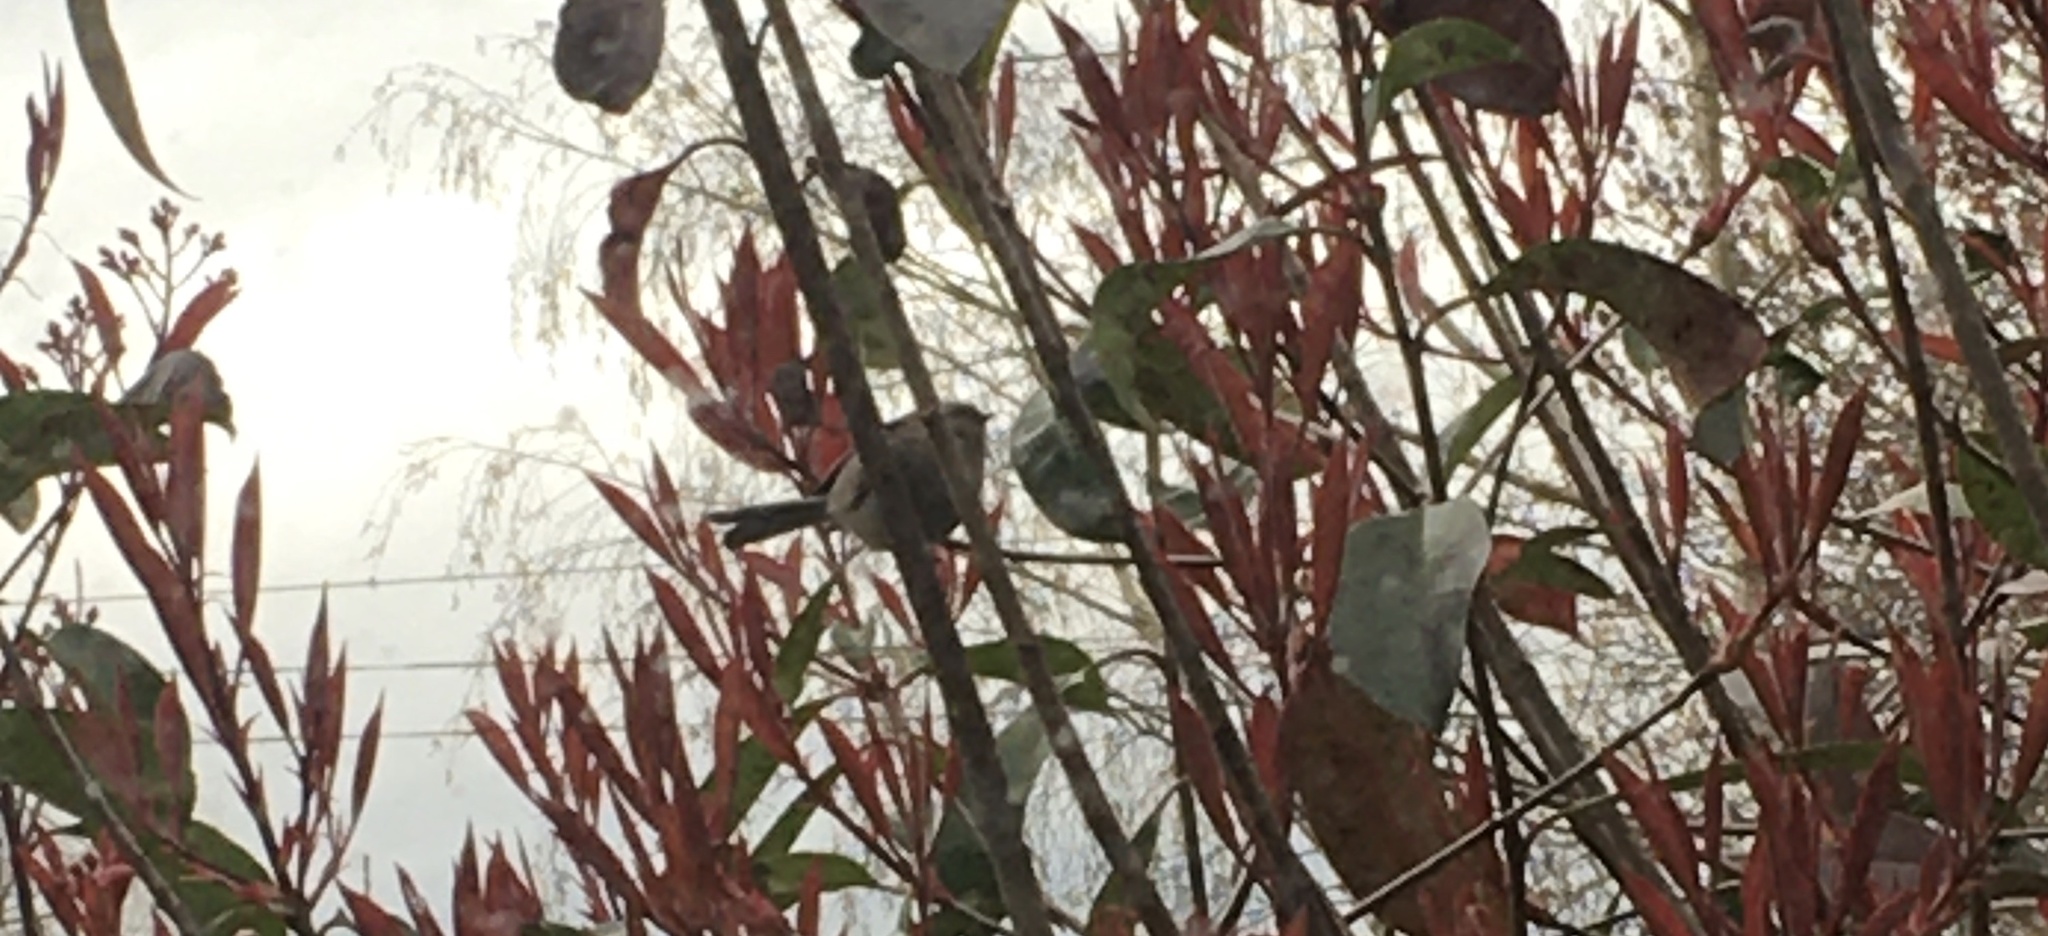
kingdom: Animalia
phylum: Chordata
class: Aves
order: Passeriformes
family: Aegithalidae
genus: Psaltriparus
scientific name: Psaltriparus minimus
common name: American bushtit
